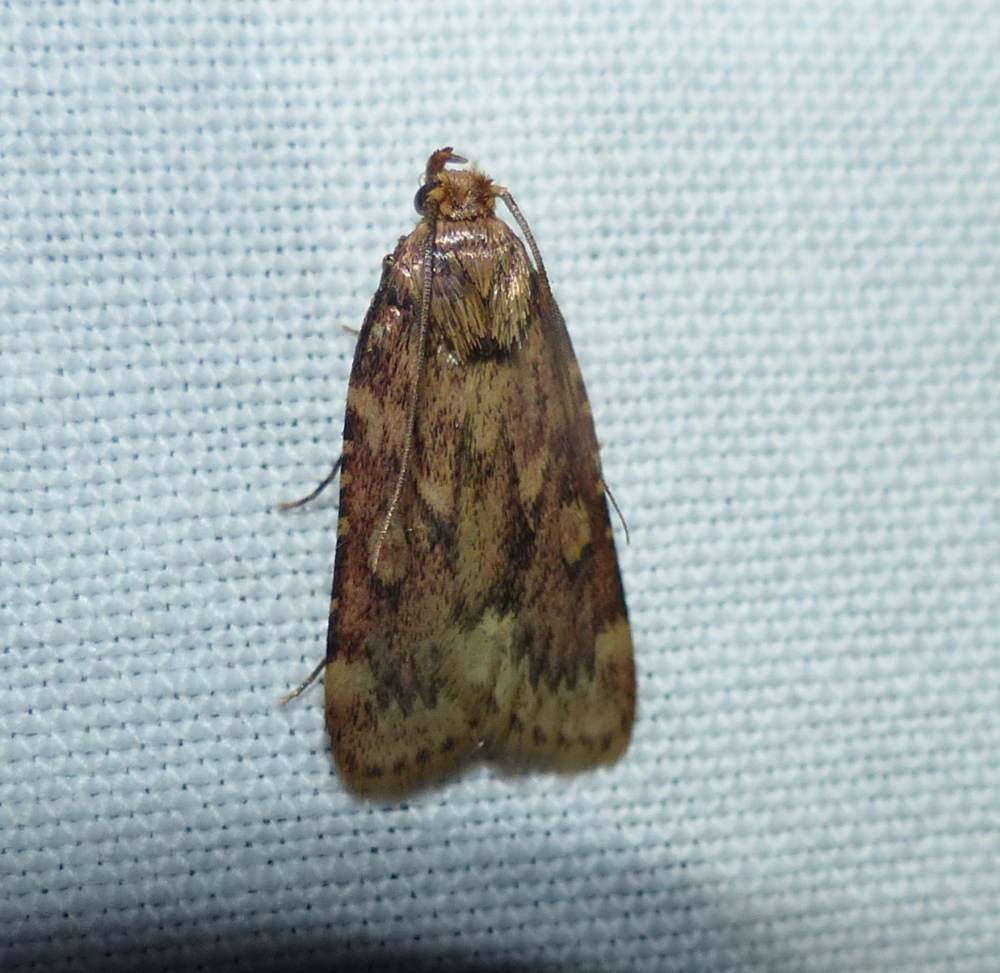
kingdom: Animalia
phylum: Arthropoda
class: Insecta
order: Lepidoptera
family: Pyralidae
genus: Aglossa
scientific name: Aglossa cuprina
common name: Grease moth
